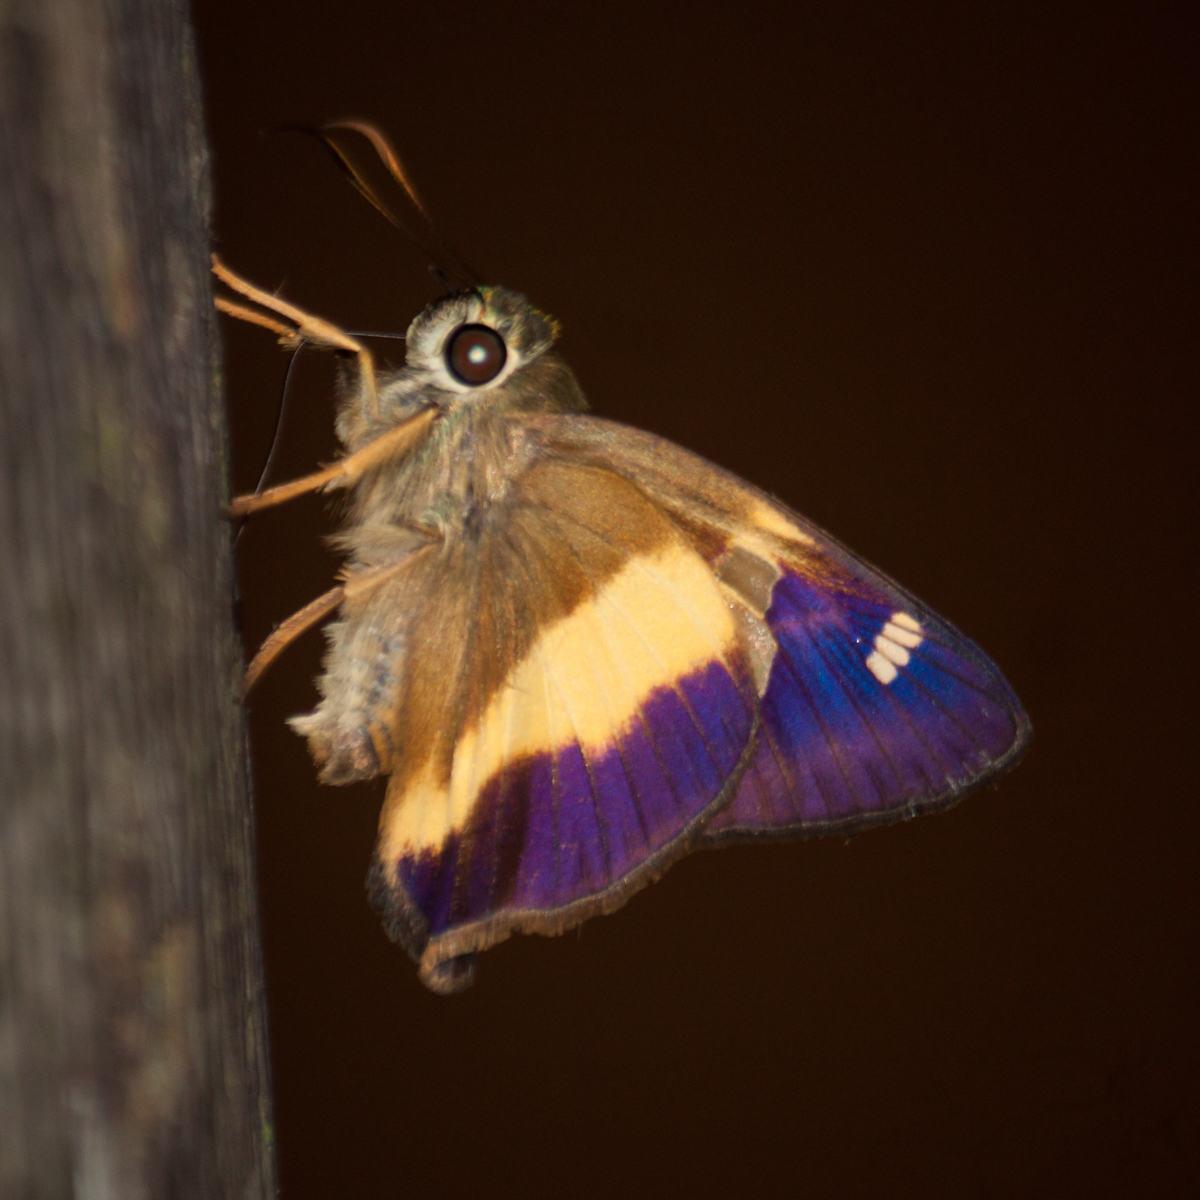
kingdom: Animalia
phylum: Arthropoda
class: Insecta
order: Lepidoptera
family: Hesperiidae
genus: Hasora
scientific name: Hasora schoenherr
